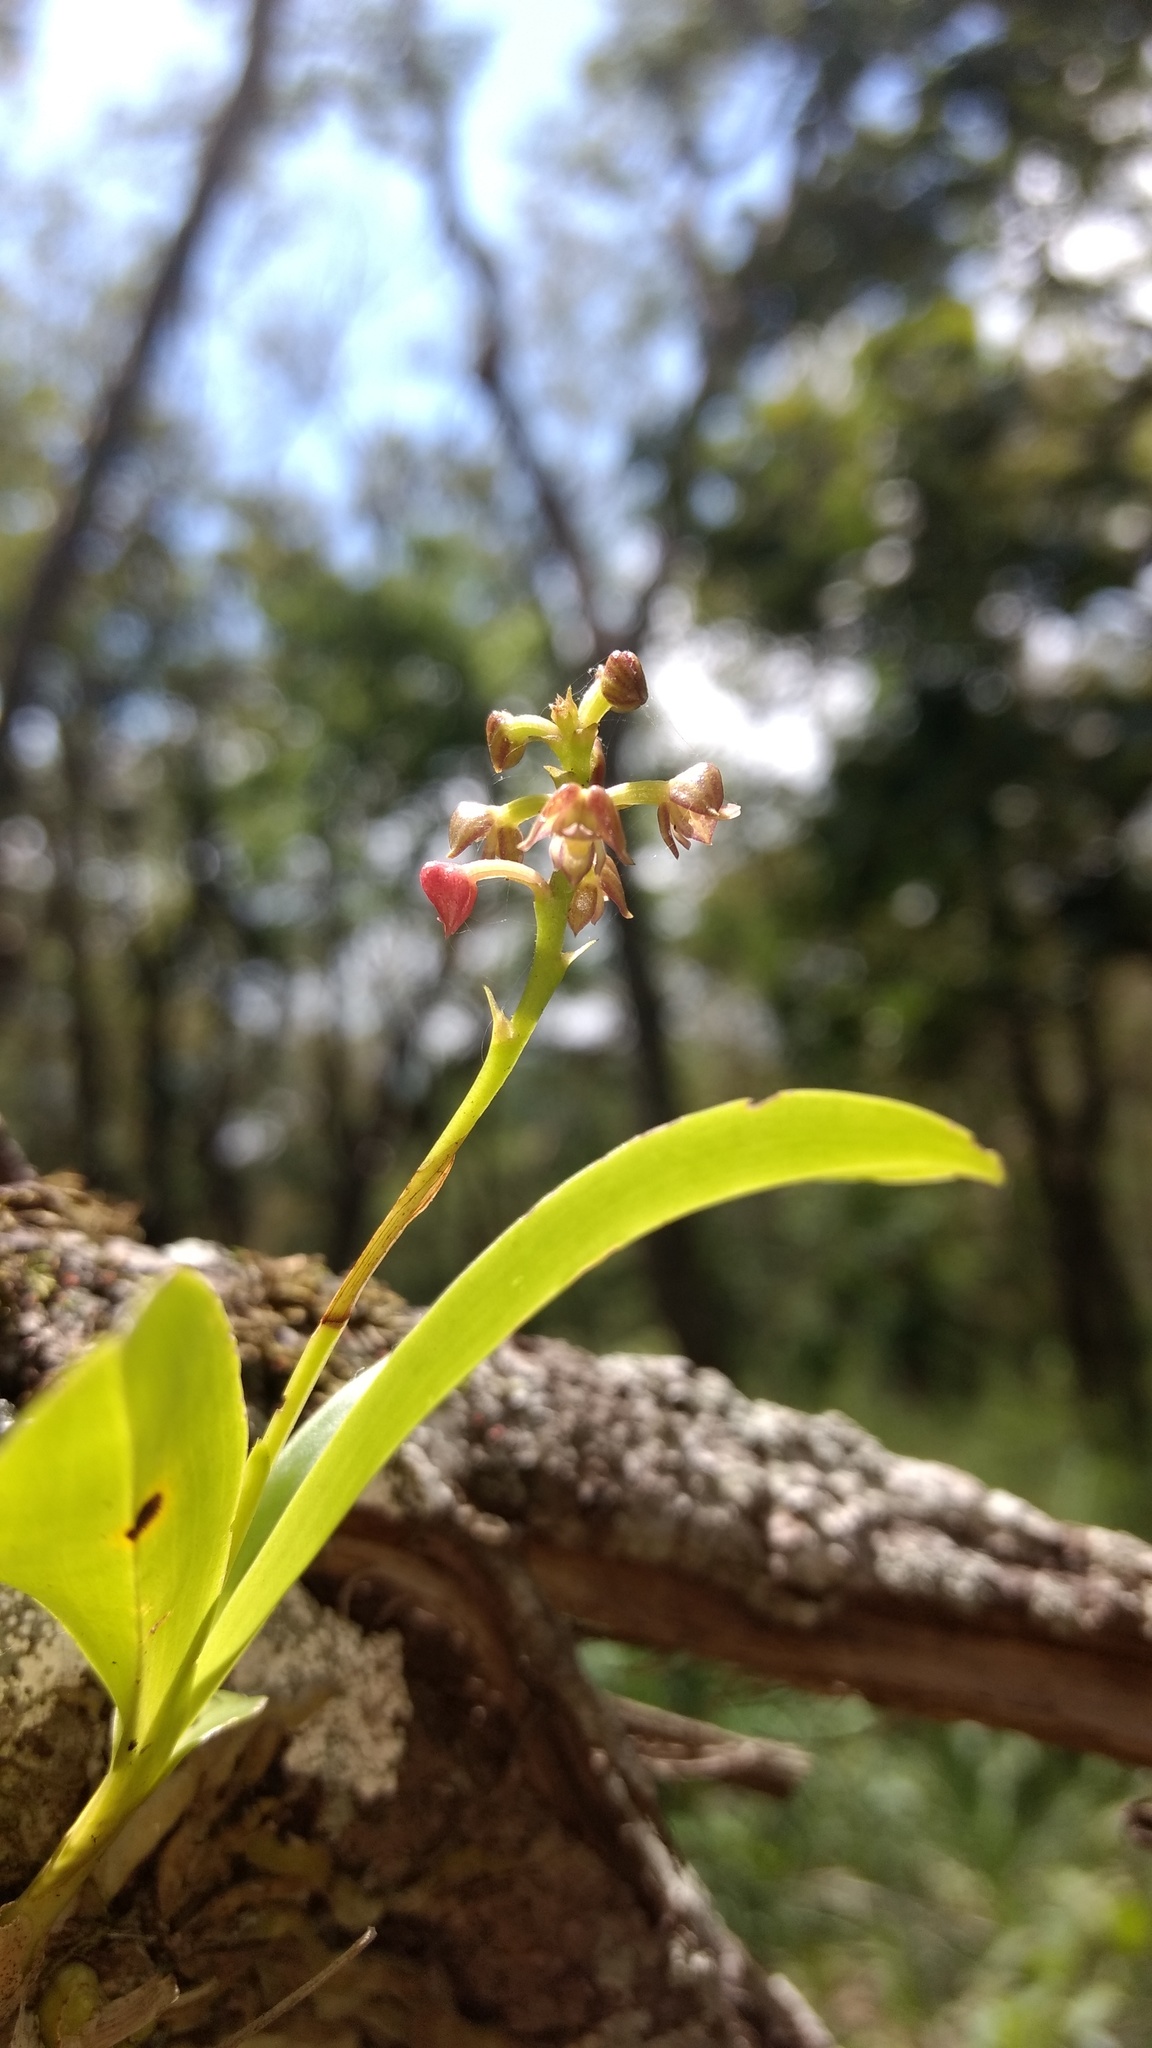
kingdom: Plantae
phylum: Tracheophyta
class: Liliopsida
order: Asparagales
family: Orchidaceae
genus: Polystachya
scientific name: Polystachya concreta
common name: Greater yellowspike orchid
